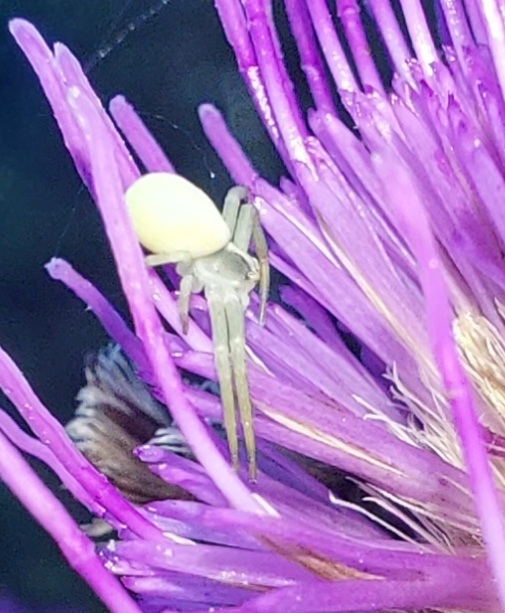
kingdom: Animalia
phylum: Arthropoda
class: Arachnida
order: Araneae
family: Thomisidae
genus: Misumena
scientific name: Misumena vatia
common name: Goldenrod crab spider
